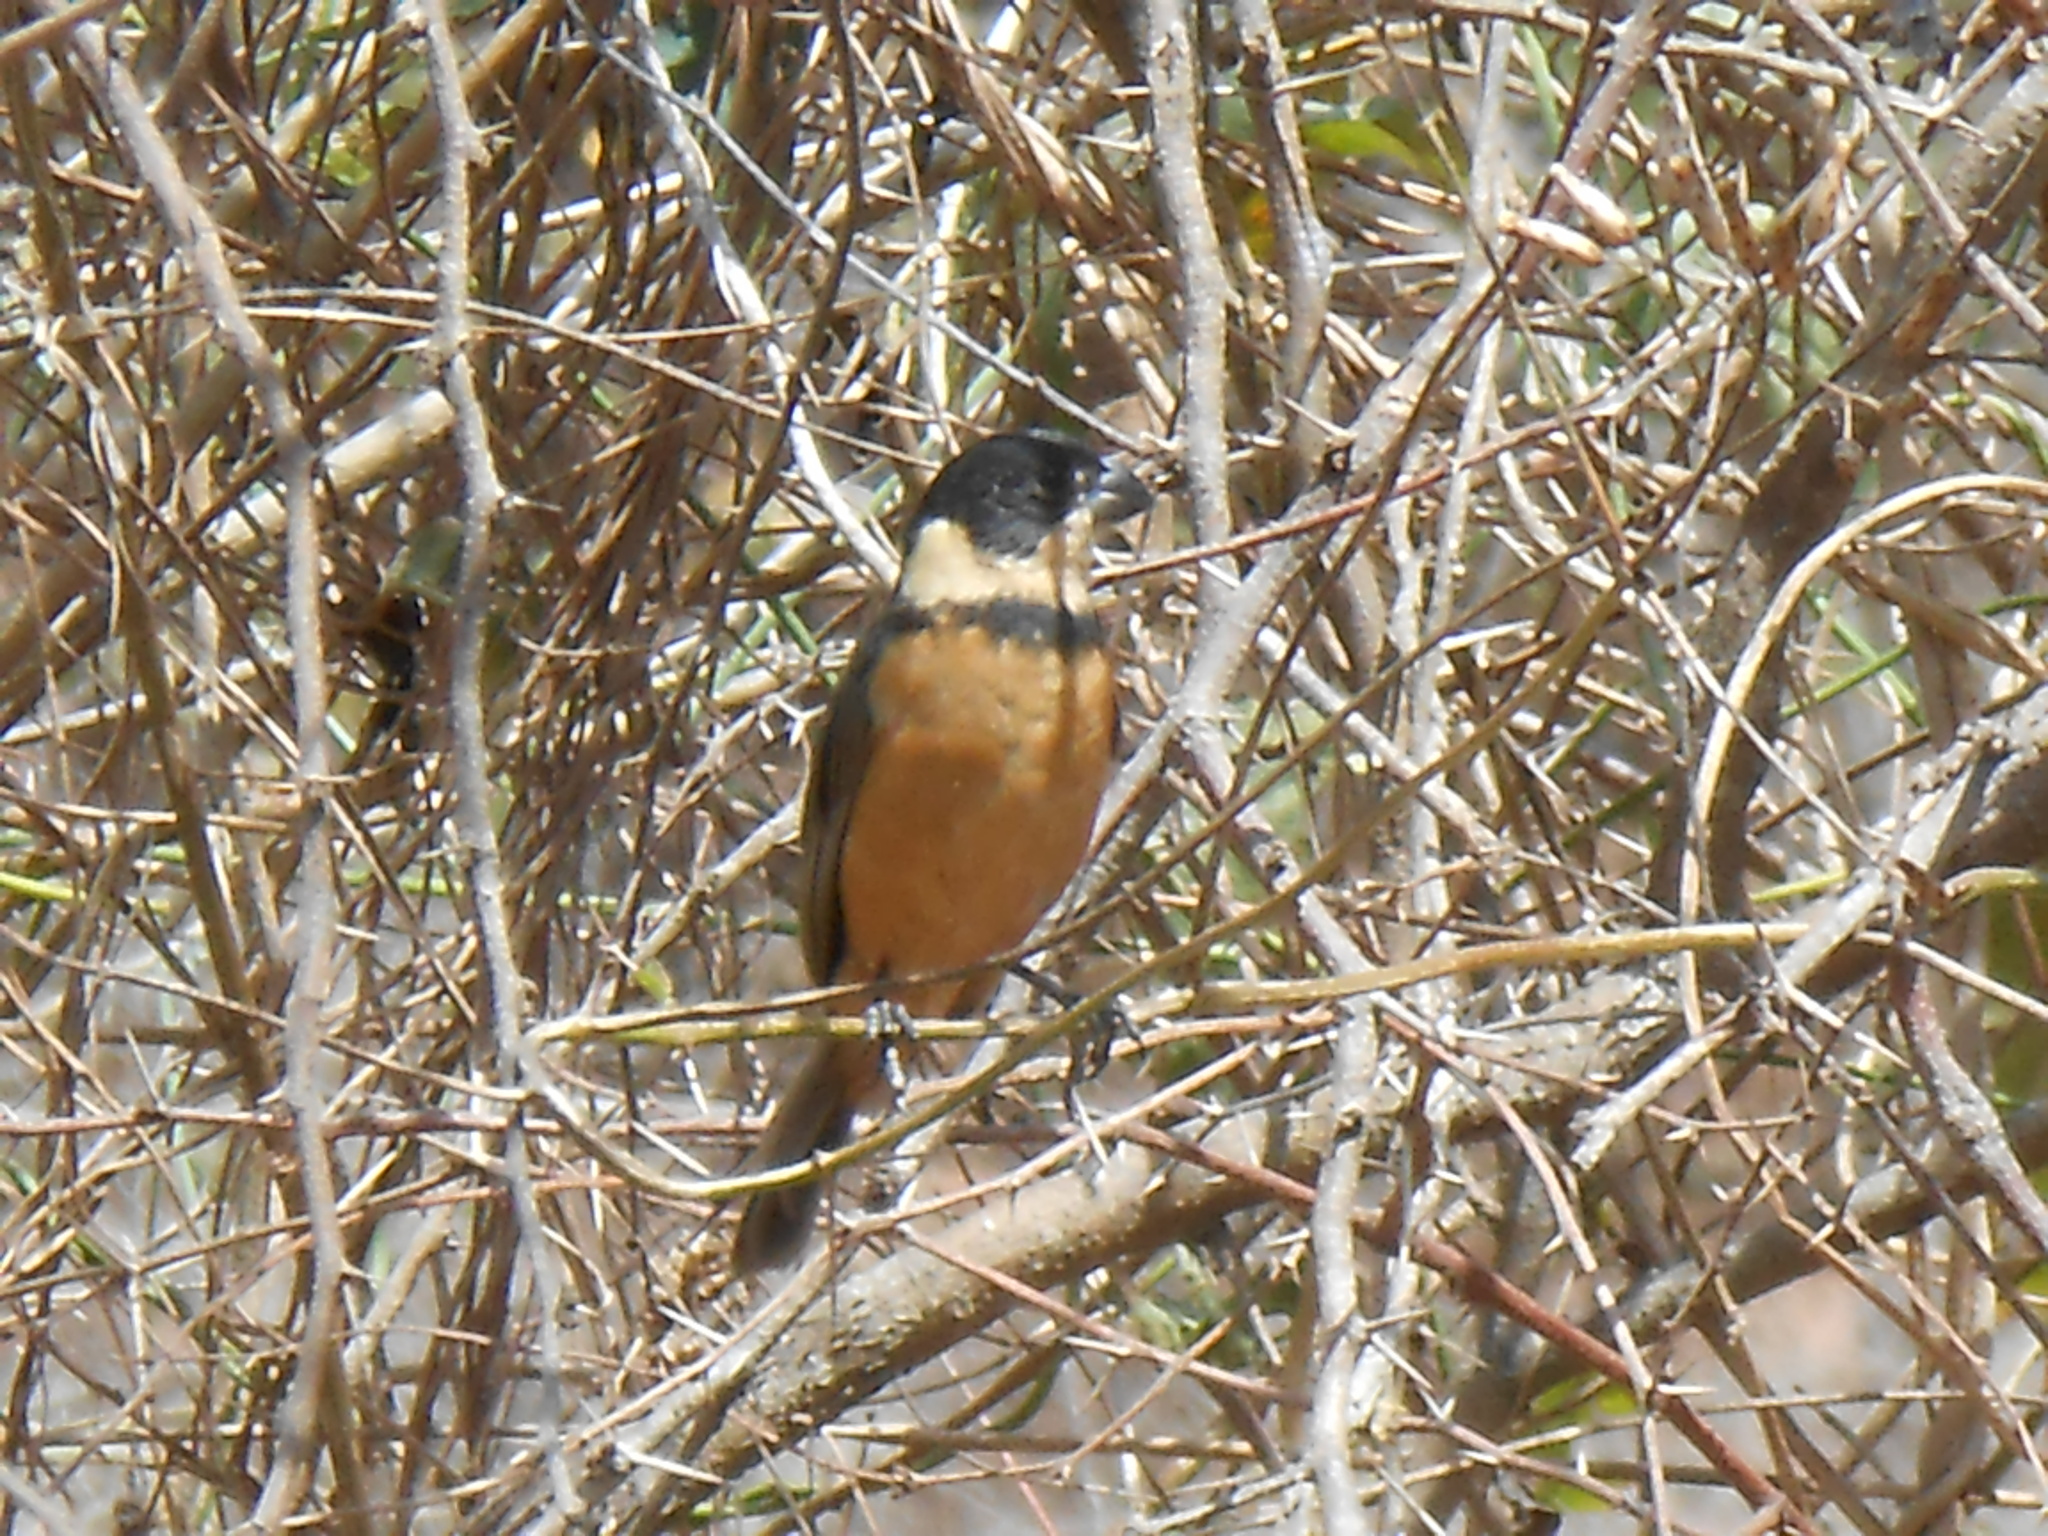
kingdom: Animalia
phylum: Chordata
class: Aves
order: Passeriformes
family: Thraupidae
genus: Sporophila
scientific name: Sporophila torqueola
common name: White-collared seedeater
